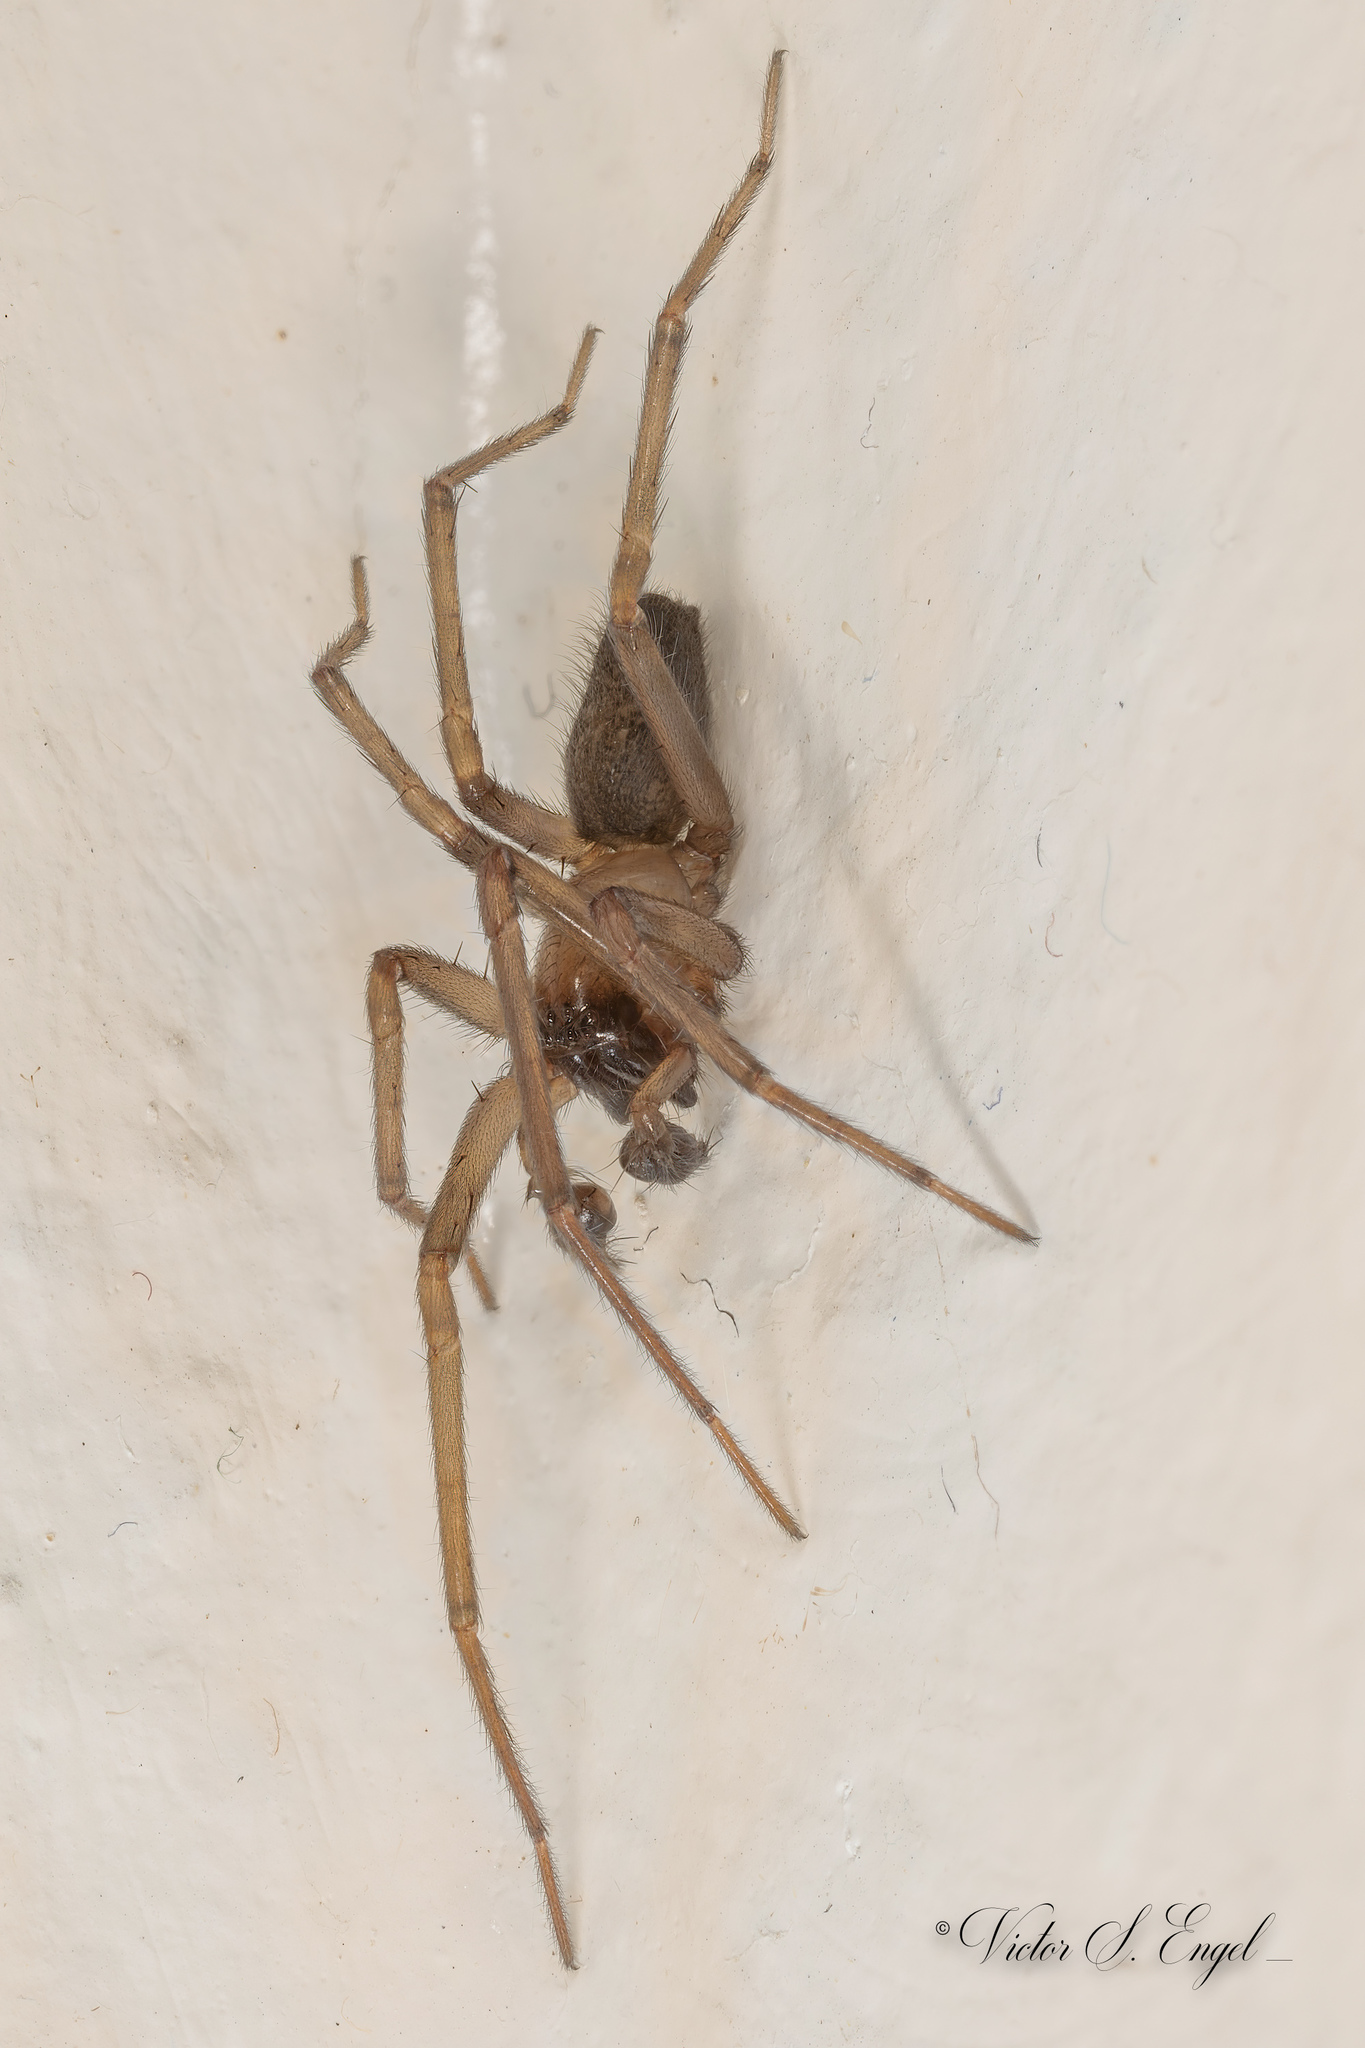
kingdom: Animalia
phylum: Arthropoda
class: Arachnida
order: Araneae
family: Desidae
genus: Metaltella
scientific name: Metaltella simoni
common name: Cribellate spider
